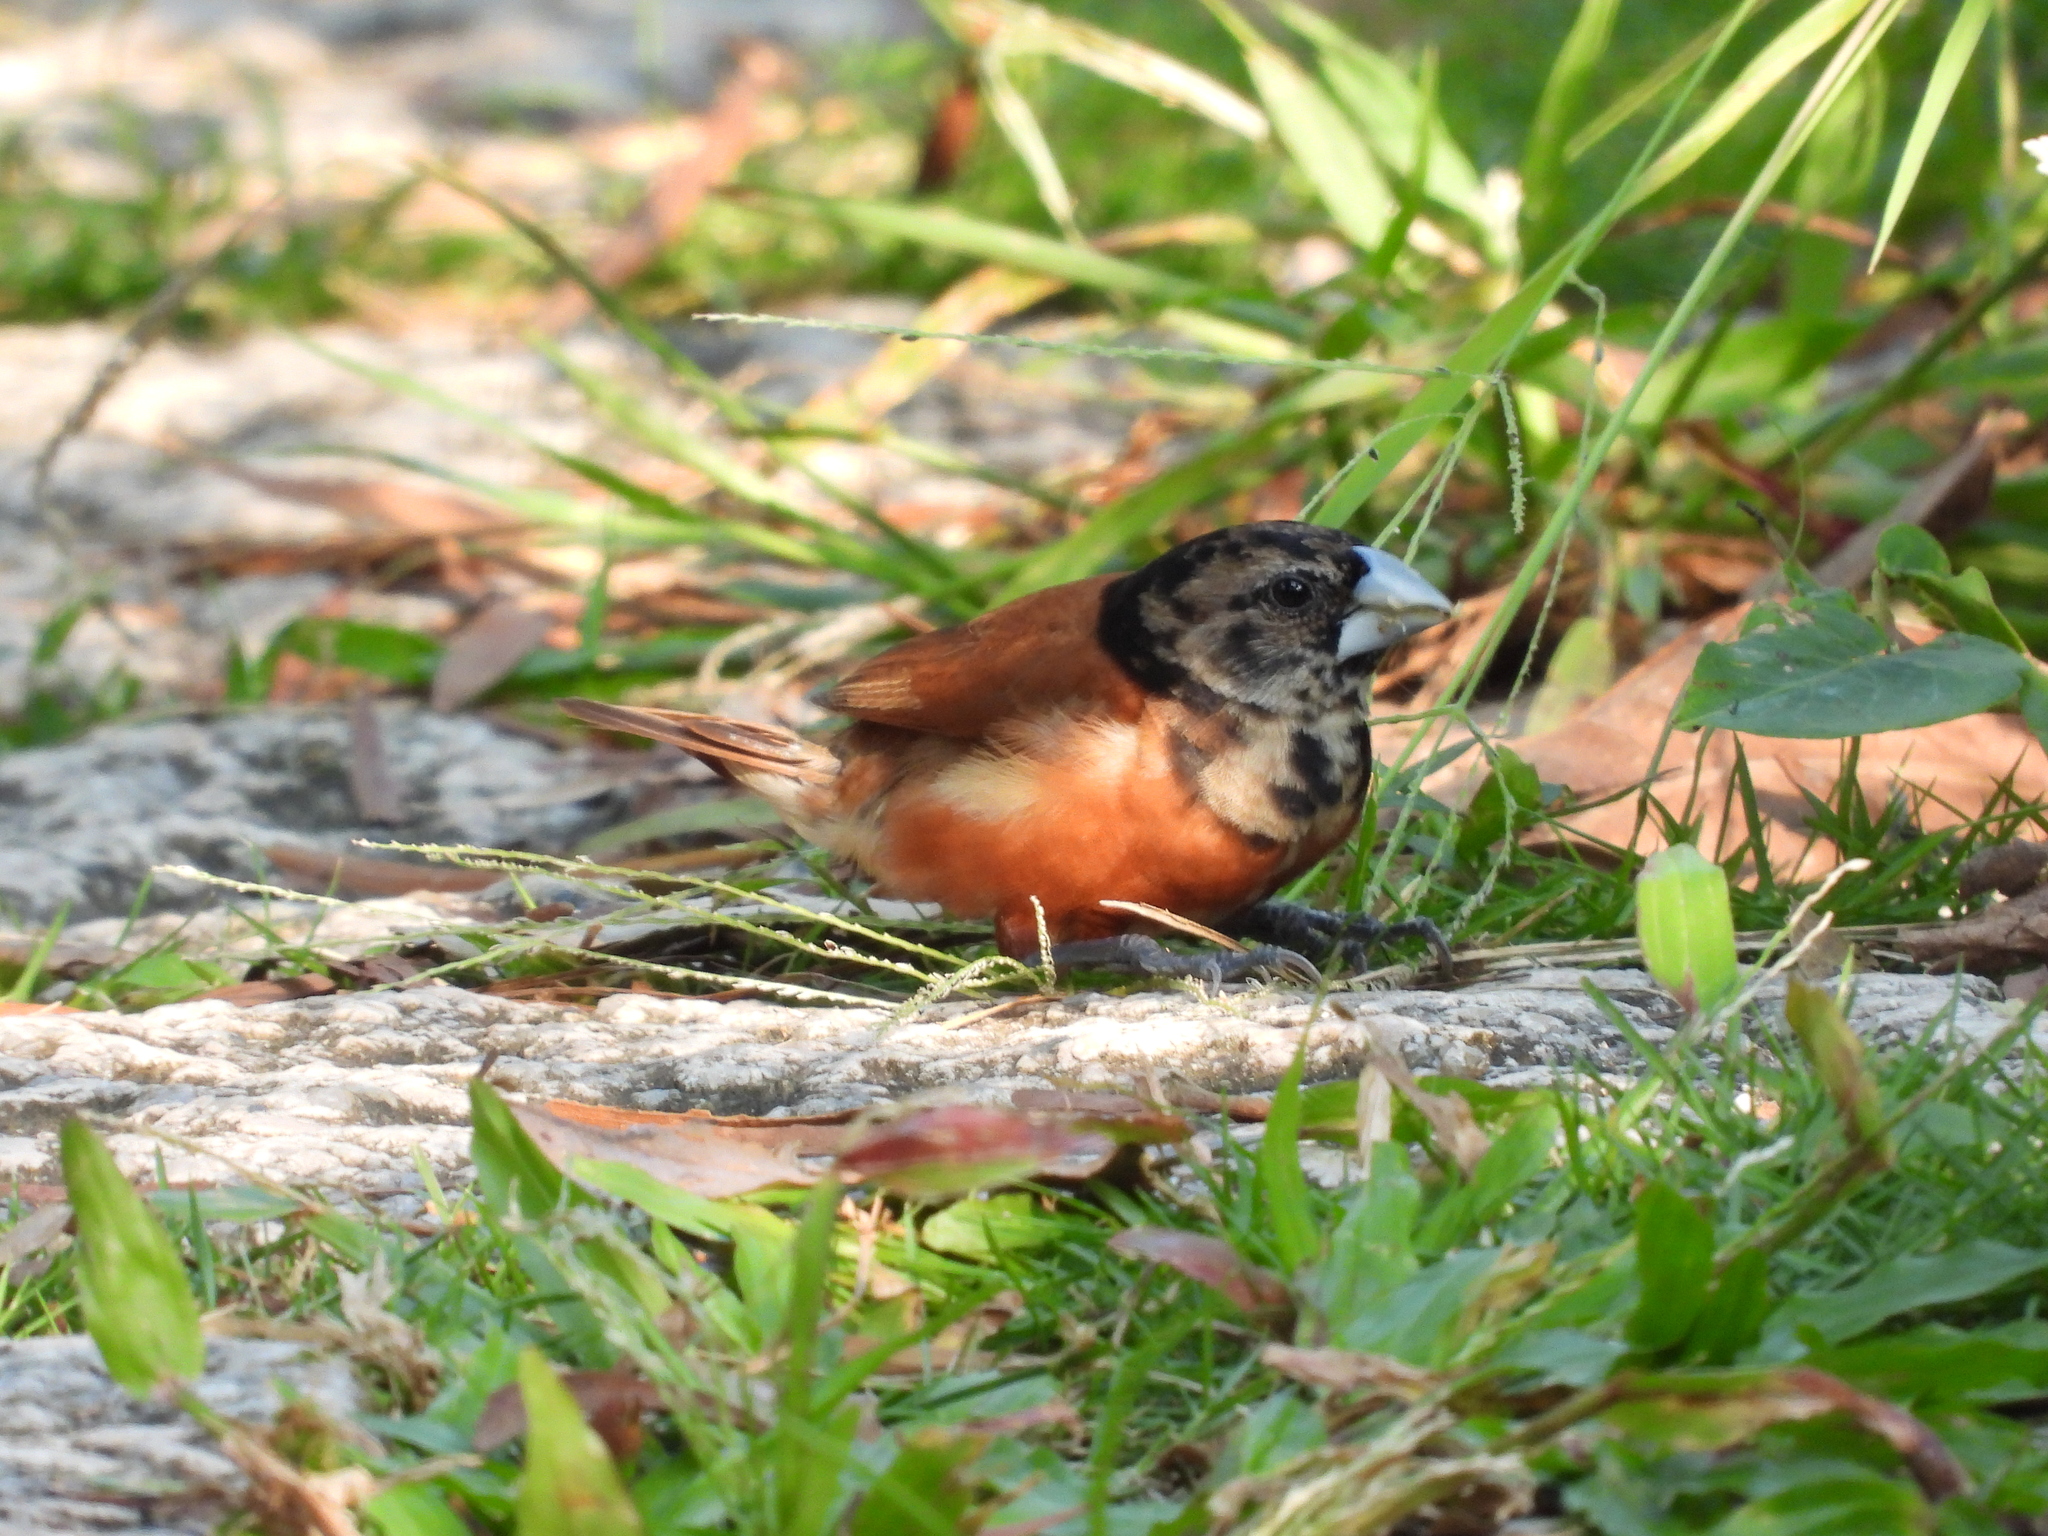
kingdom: Animalia
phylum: Chordata
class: Aves
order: Passeriformes
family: Estrildidae
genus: Lonchura
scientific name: Lonchura atricapilla
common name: Chestnut munia
